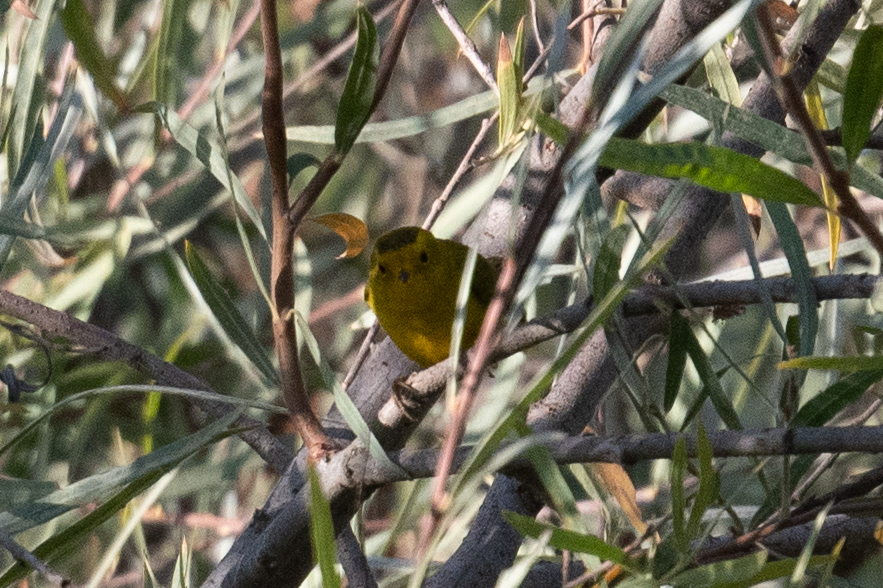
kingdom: Animalia
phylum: Chordata
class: Aves
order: Passeriformes
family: Parulidae
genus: Cardellina
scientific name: Cardellina pusilla
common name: Wilson's warbler
